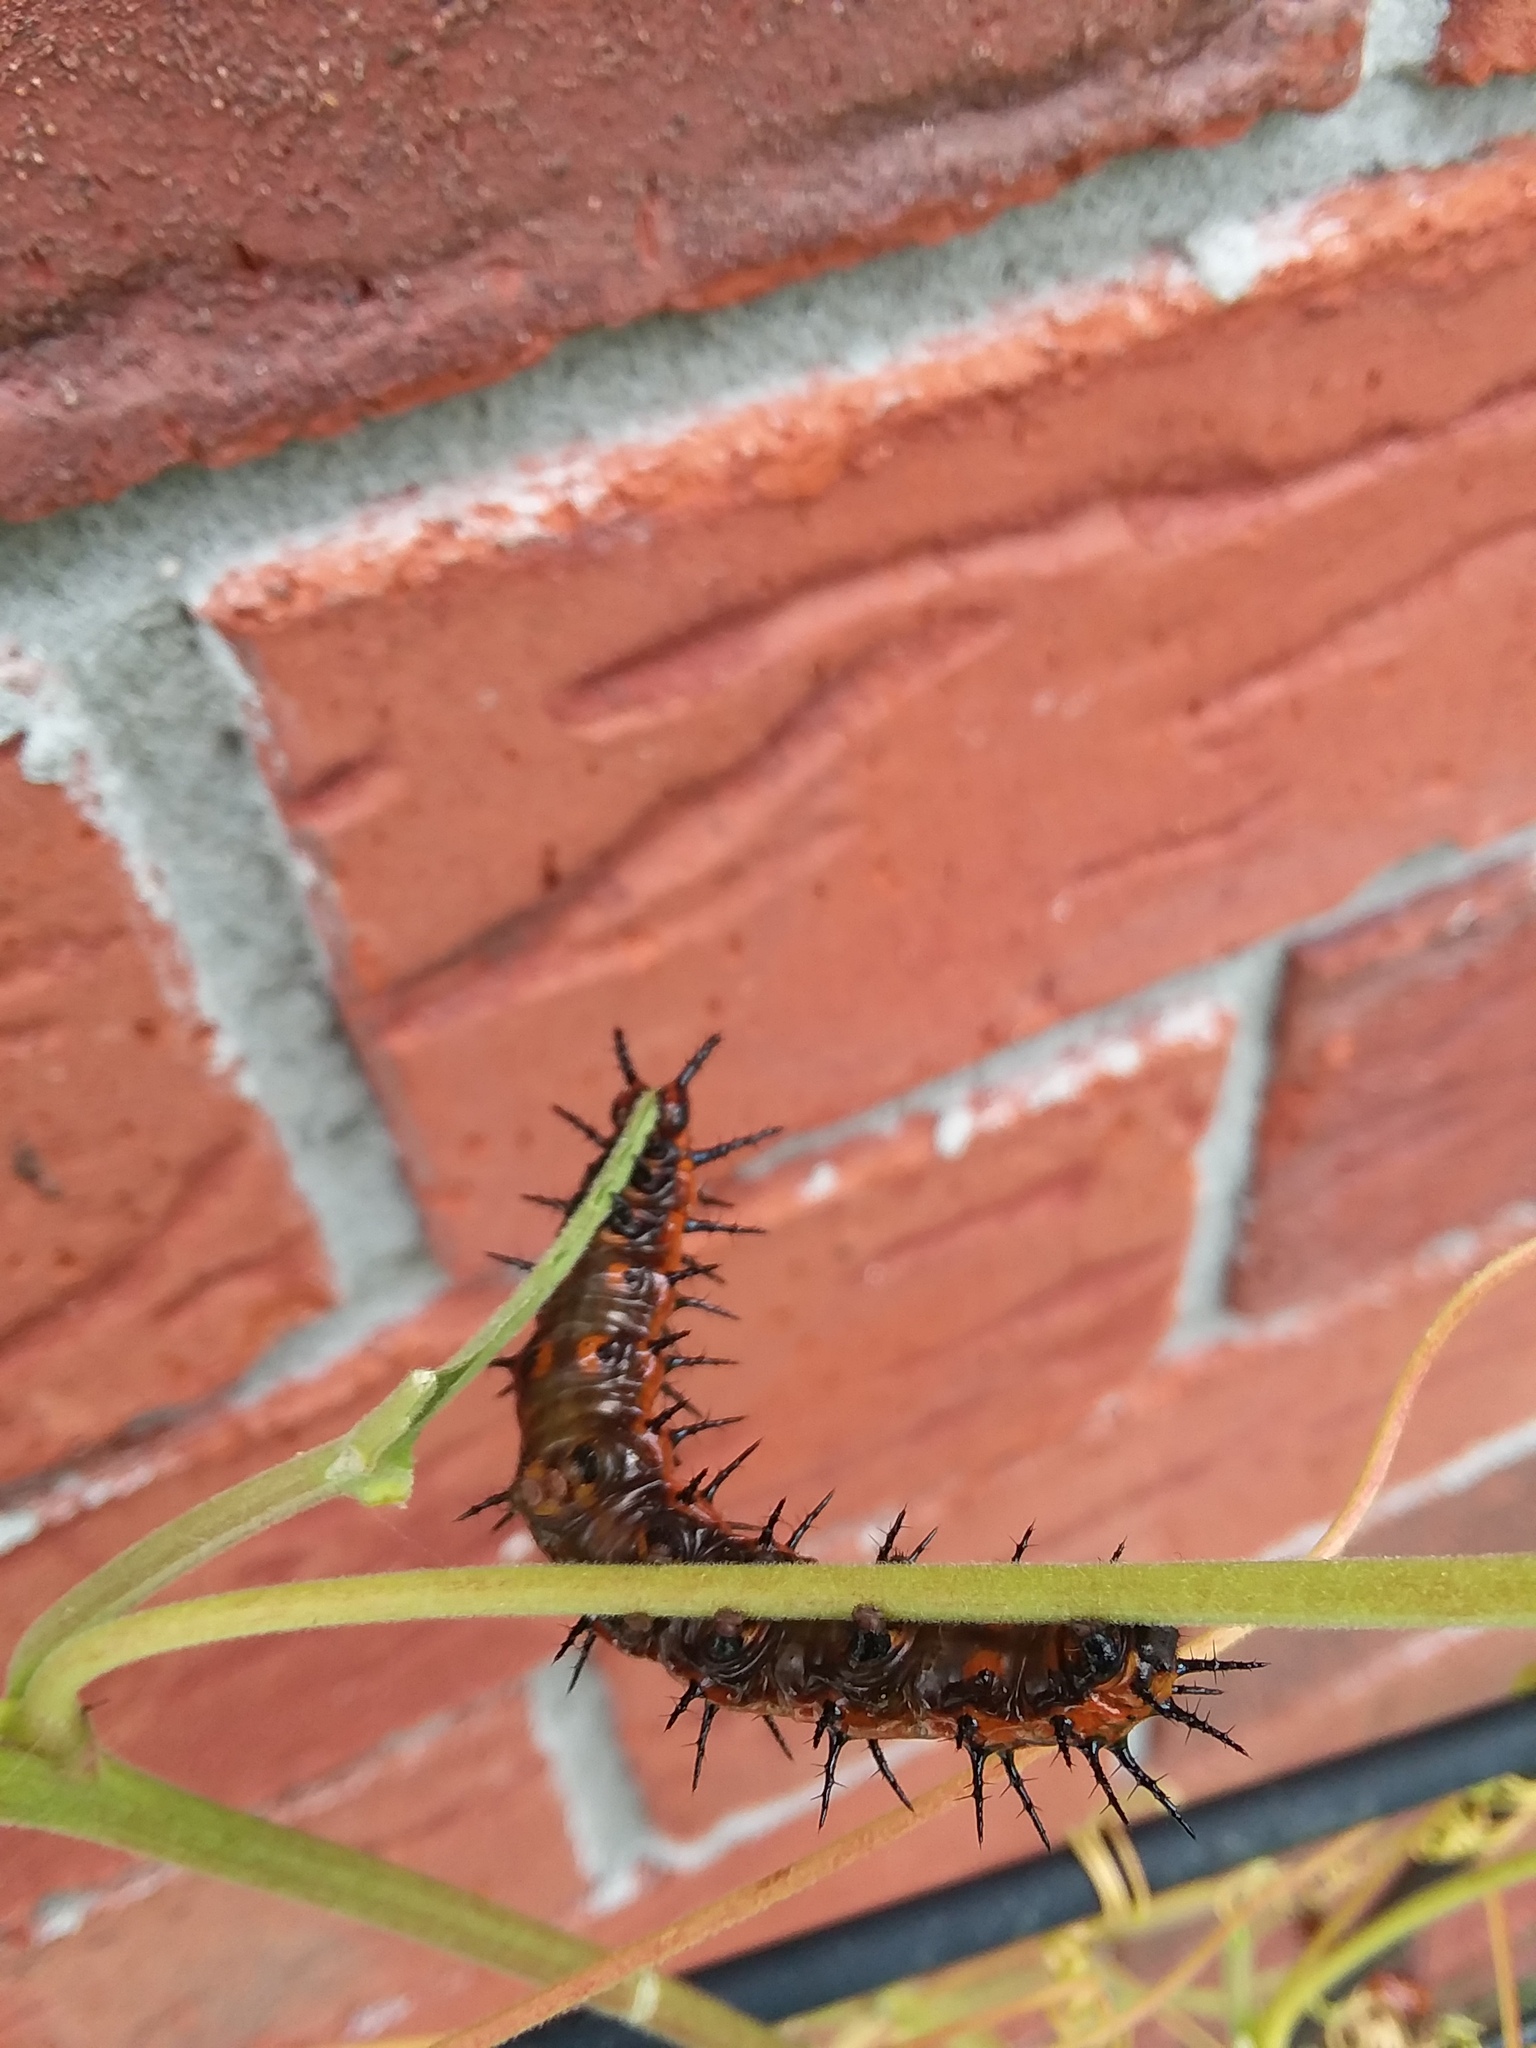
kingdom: Animalia
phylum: Arthropoda
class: Insecta
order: Lepidoptera
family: Nymphalidae
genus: Dione
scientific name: Dione vanillae
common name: Gulf fritillary
